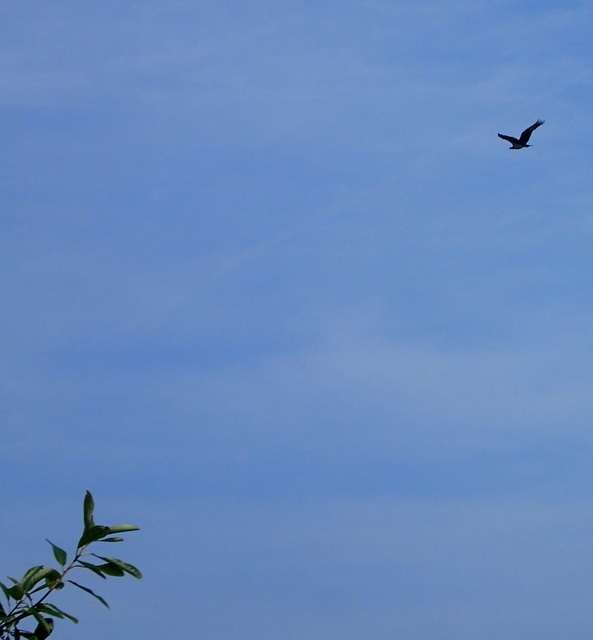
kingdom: Animalia
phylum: Chordata
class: Aves
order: Accipitriformes
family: Pandionidae
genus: Pandion
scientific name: Pandion haliaetus
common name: Osprey
